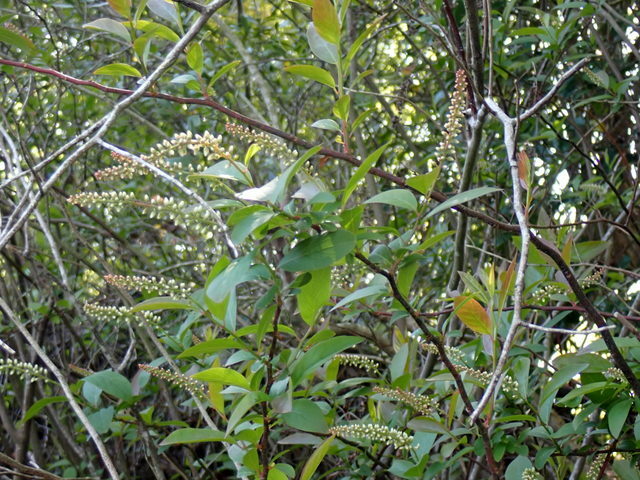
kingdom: Plantae
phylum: Tracheophyta
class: Magnoliopsida
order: Saxifragales
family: Iteaceae
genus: Itea
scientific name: Itea virginica
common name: Sweetspire
